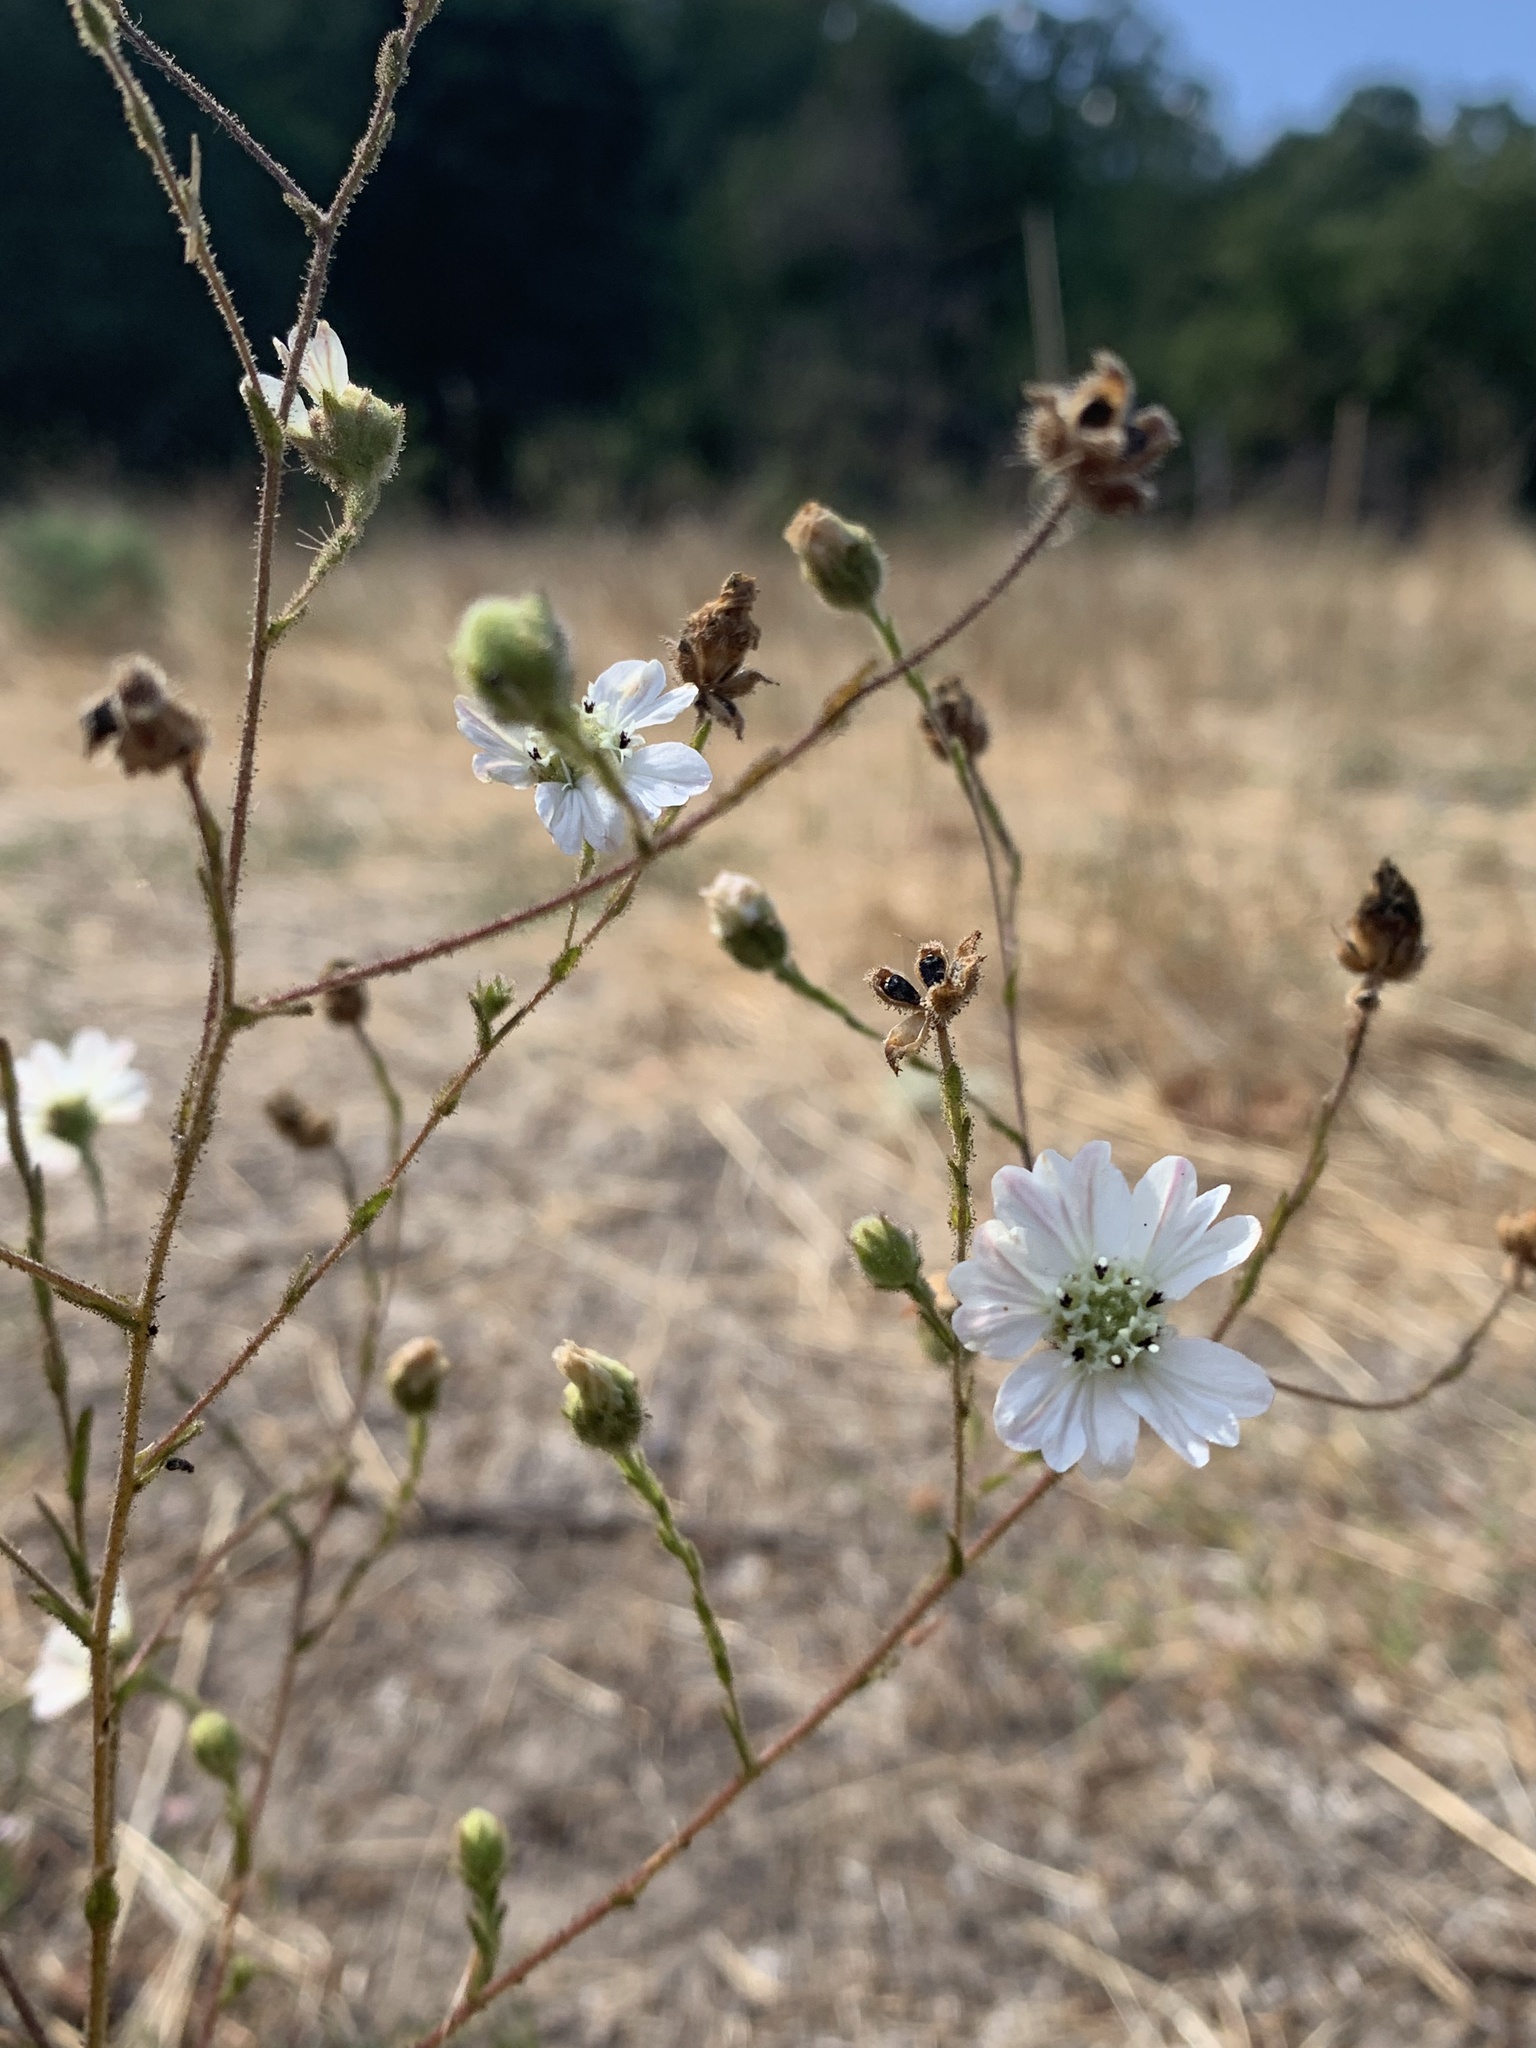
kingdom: Plantae
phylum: Tracheophyta
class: Magnoliopsida
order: Asterales
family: Asteraceae
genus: Hemizonia
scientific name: Hemizonia congesta
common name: Hayfield tarweed
